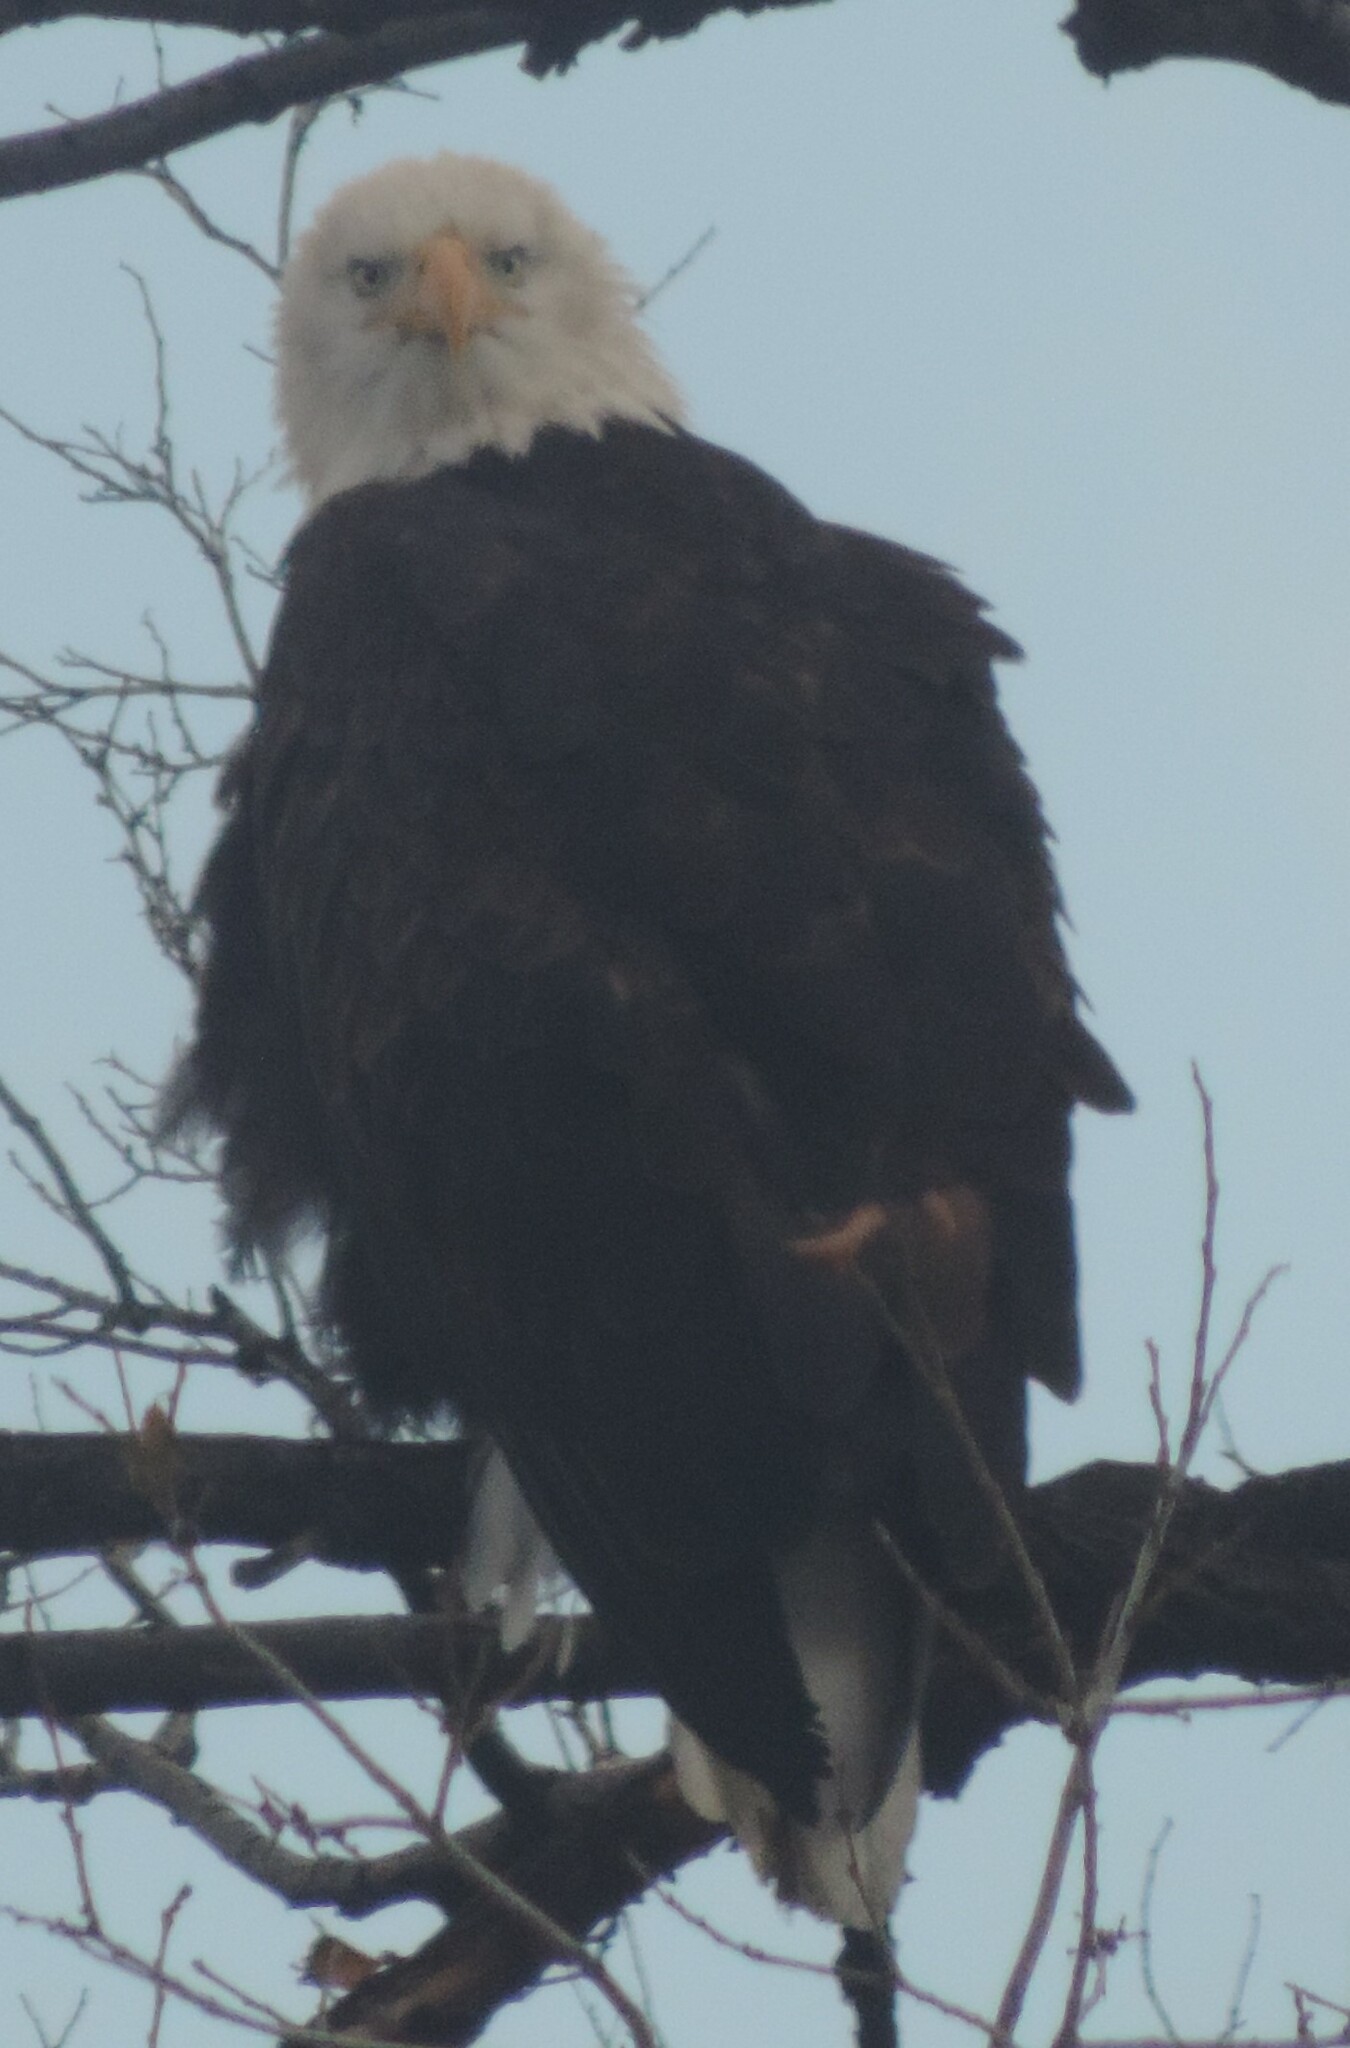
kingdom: Animalia
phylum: Chordata
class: Aves
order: Accipitriformes
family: Accipitridae
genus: Haliaeetus
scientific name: Haliaeetus leucocephalus
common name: Bald eagle
